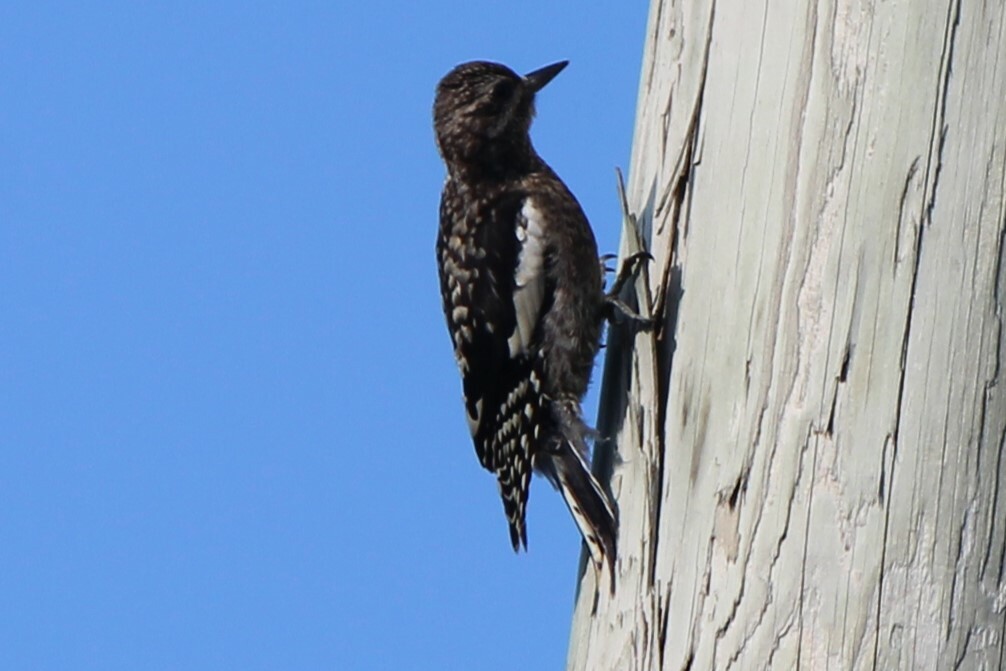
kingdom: Animalia
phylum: Chordata
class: Aves
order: Piciformes
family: Picidae
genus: Sphyrapicus
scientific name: Sphyrapicus varius
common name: Yellow-bellied sapsucker
